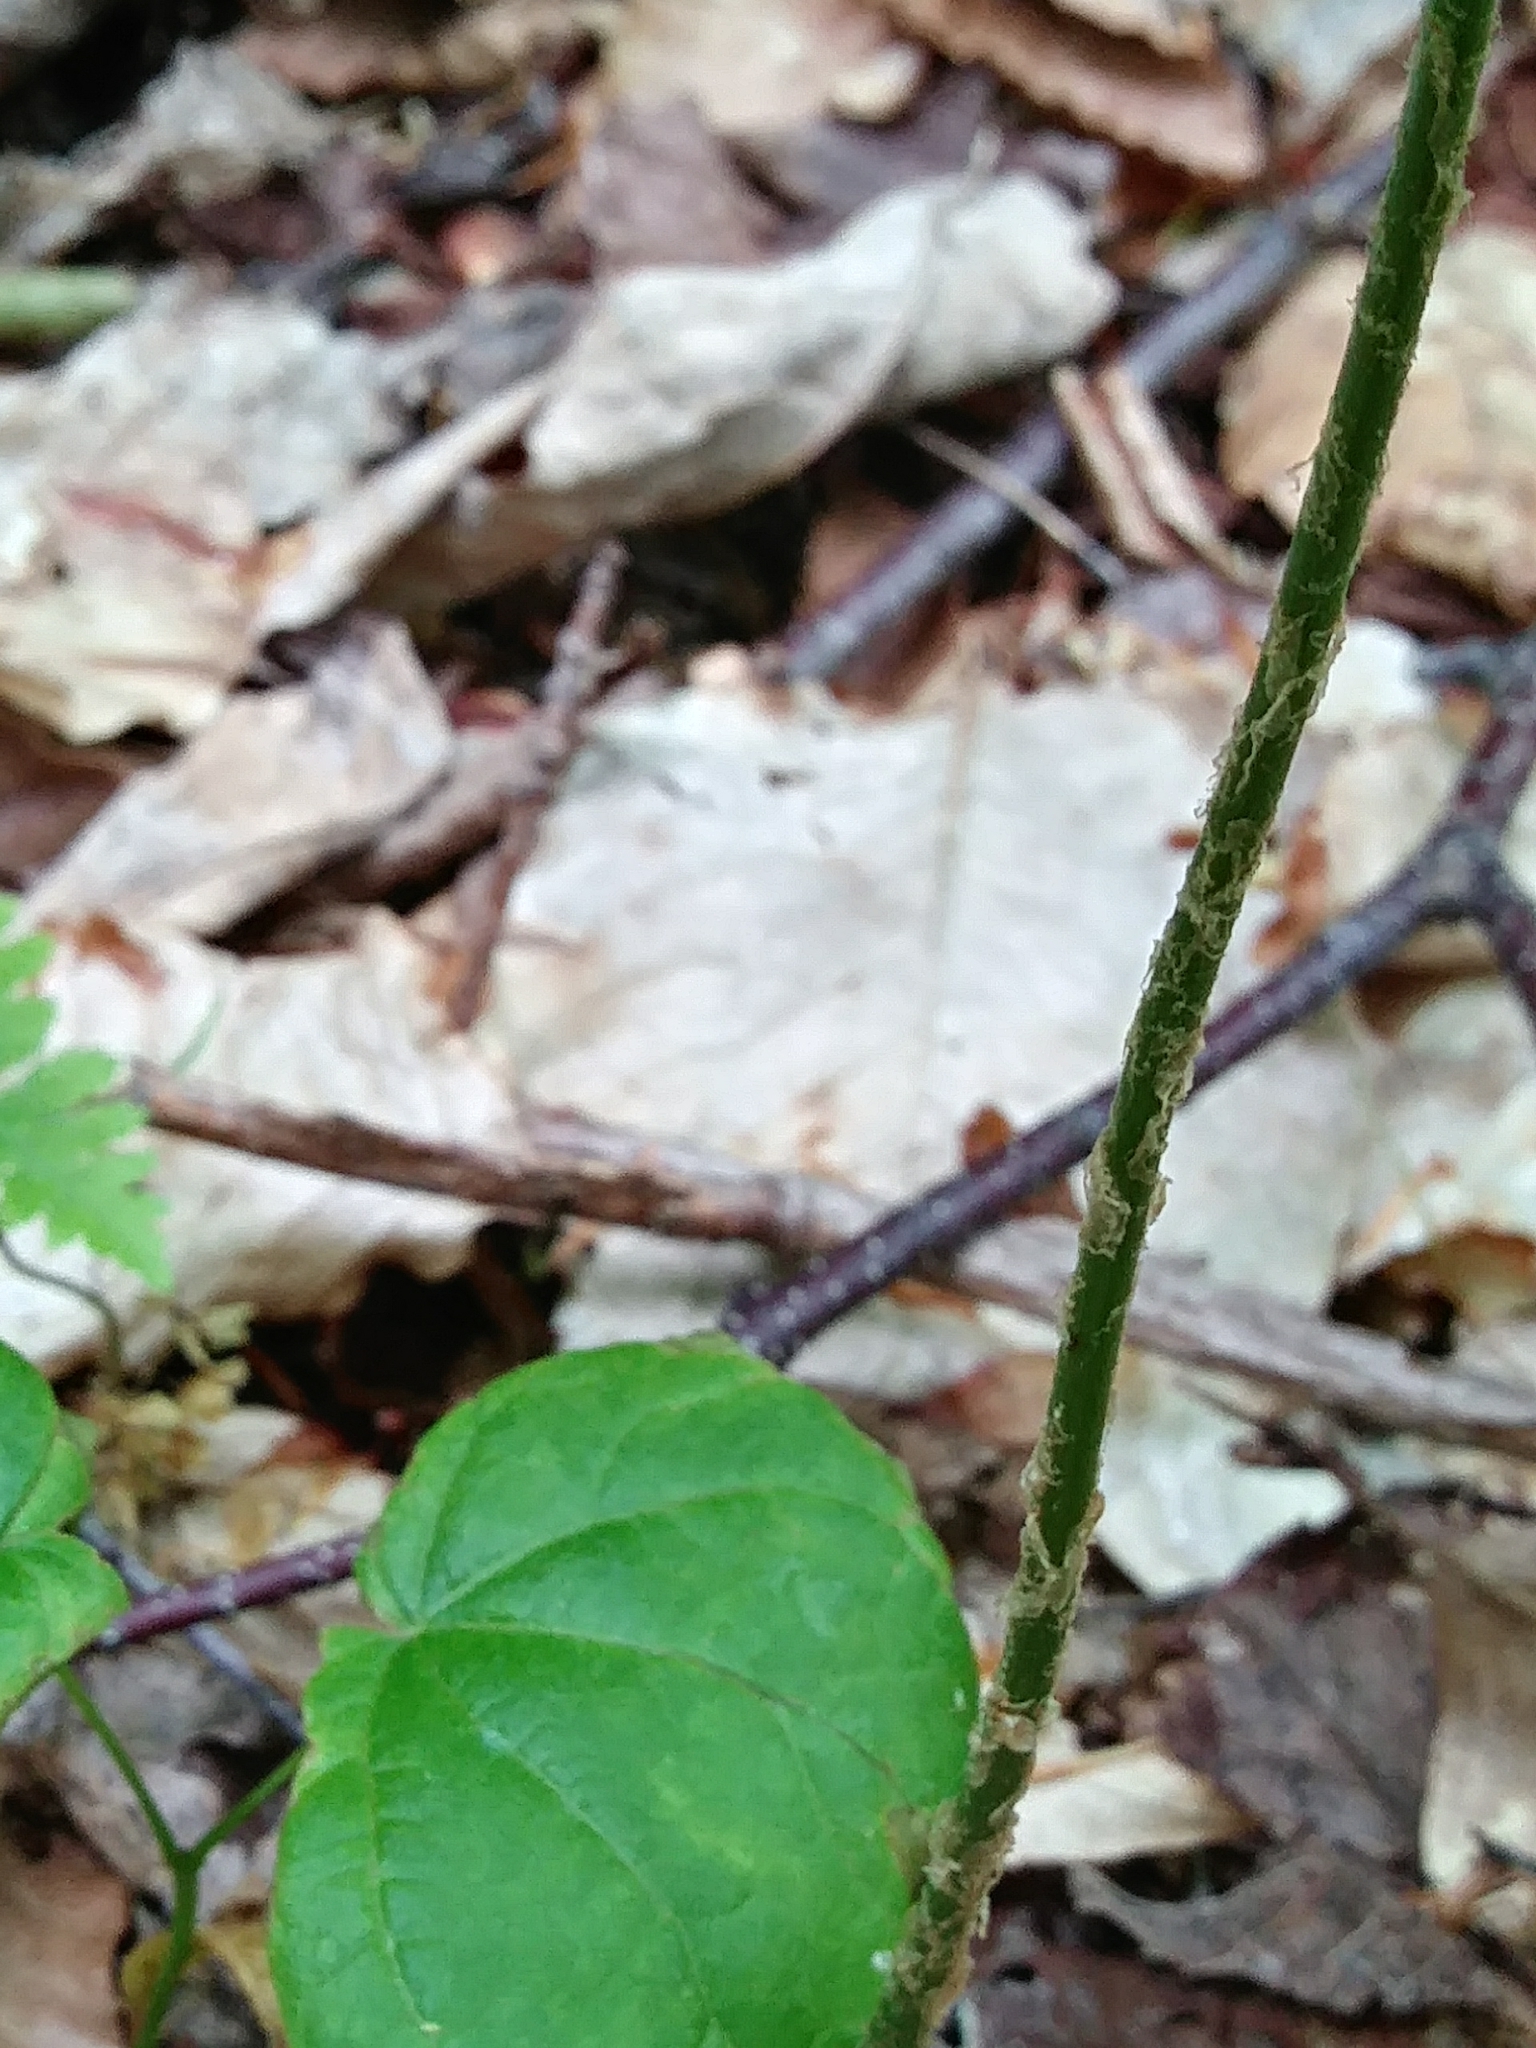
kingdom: Plantae
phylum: Tracheophyta
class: Polypodiopsida
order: Polypodiales
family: Dryopteridaceae
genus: Dryopteris
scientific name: Dryopteris goldieana
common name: Goldie's fern
